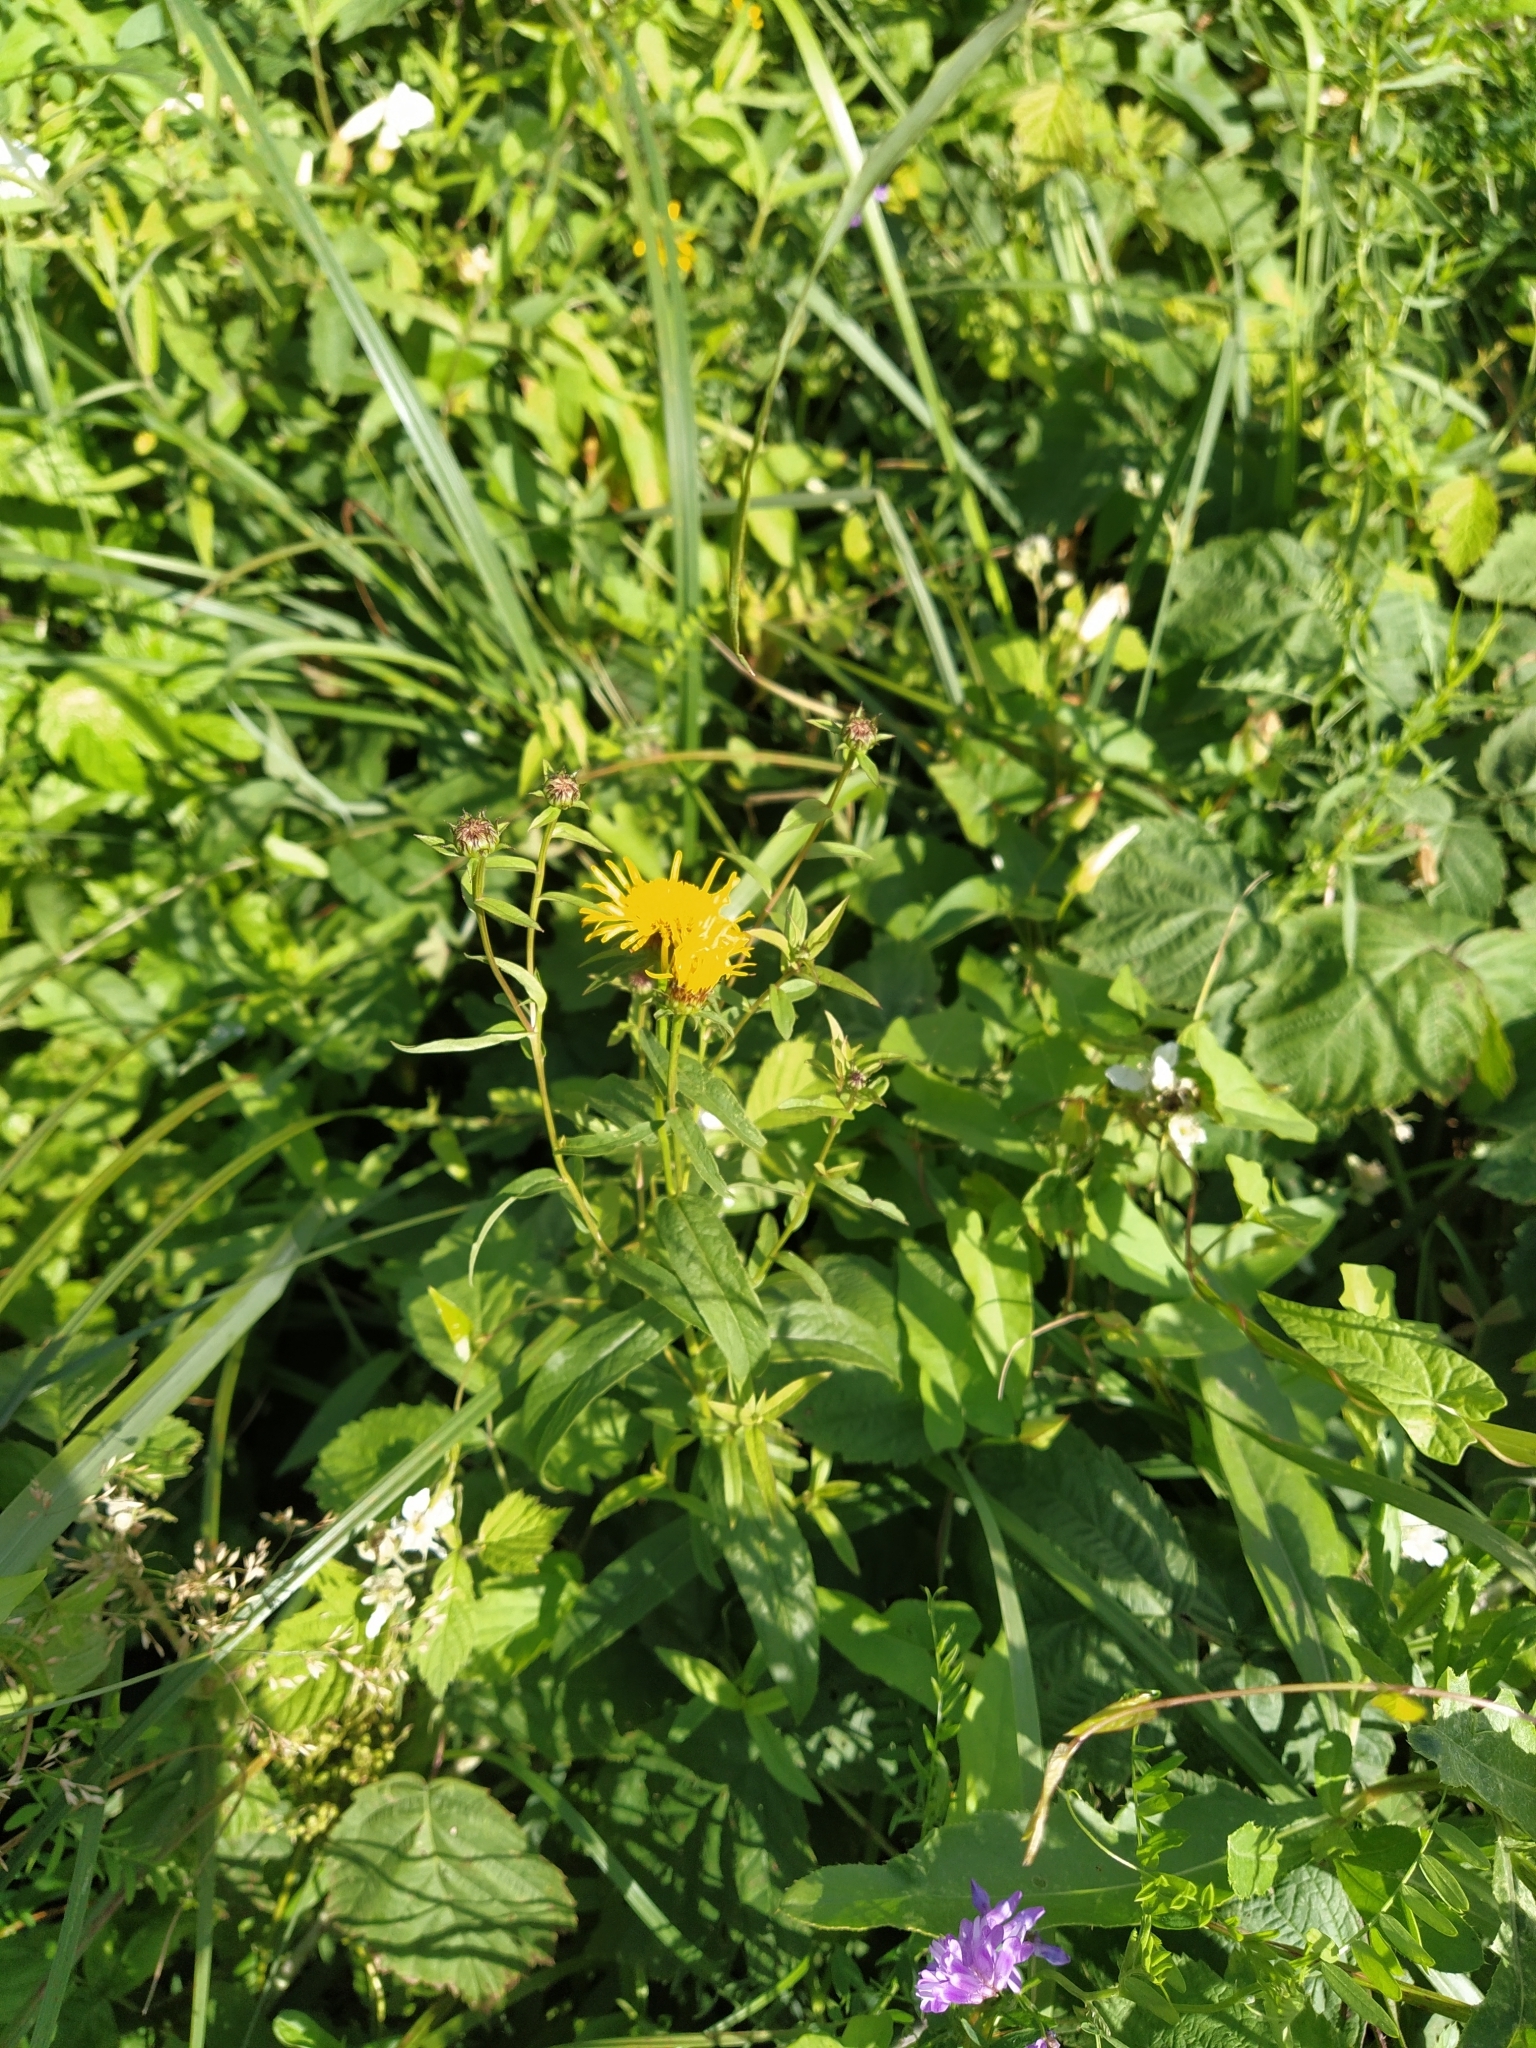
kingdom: Plantae
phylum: Tracheophyta
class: Magnoliopsida
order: Asterales
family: Asteraceae
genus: Pentanema
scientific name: Pentanema salicinum
